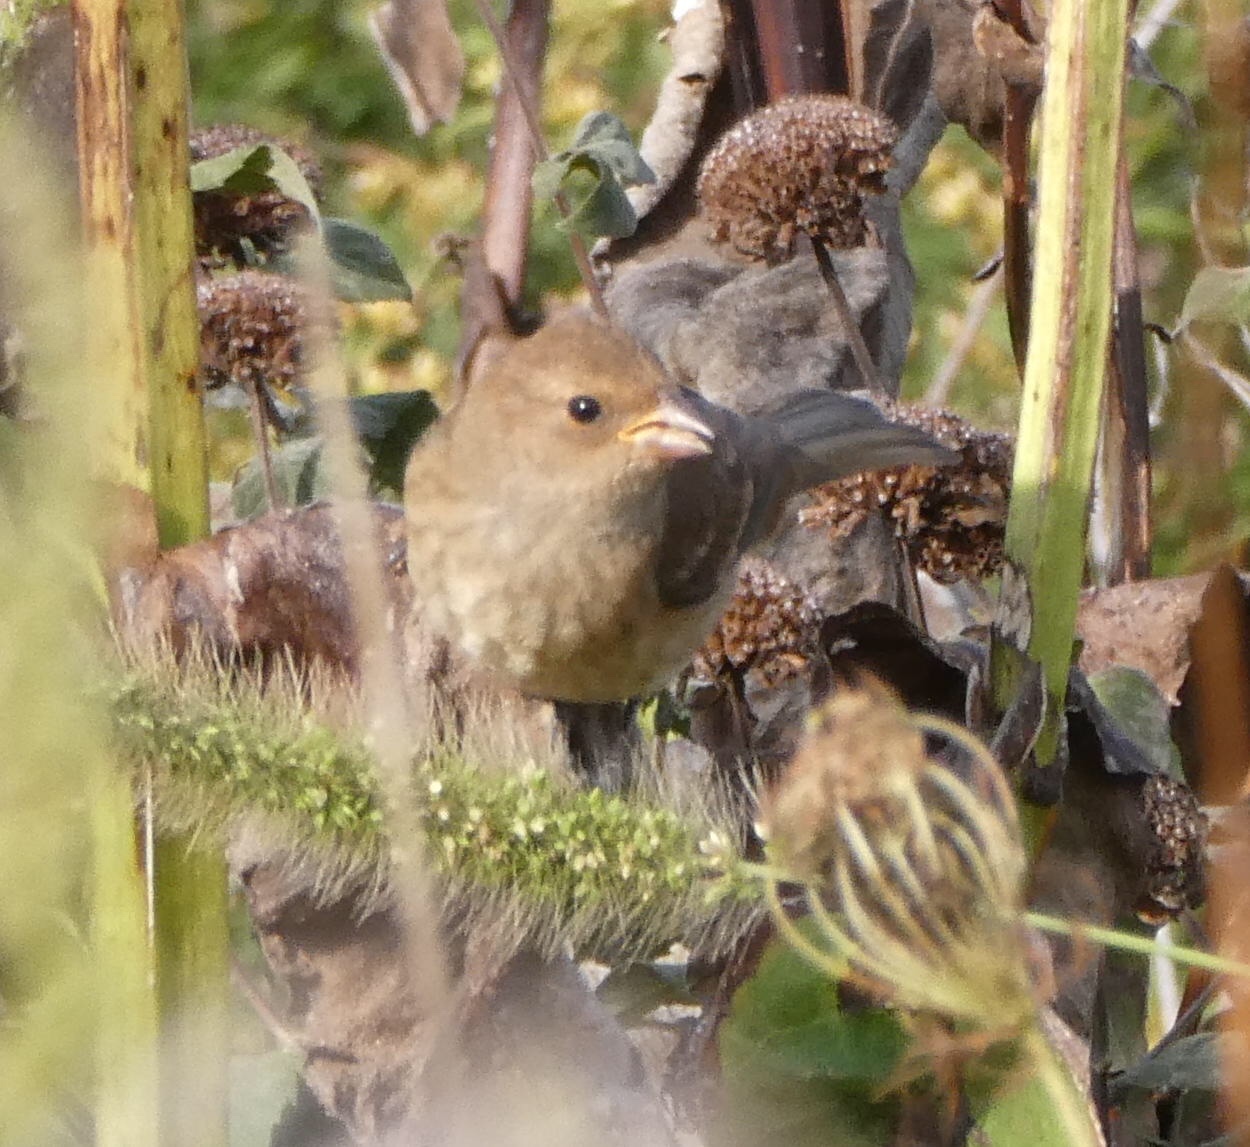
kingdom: Animalia
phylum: Chordata
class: Aves
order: Passeriformes
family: Cardinalidae
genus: Passerina
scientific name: Passerina cyanea
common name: Indigo bunting
